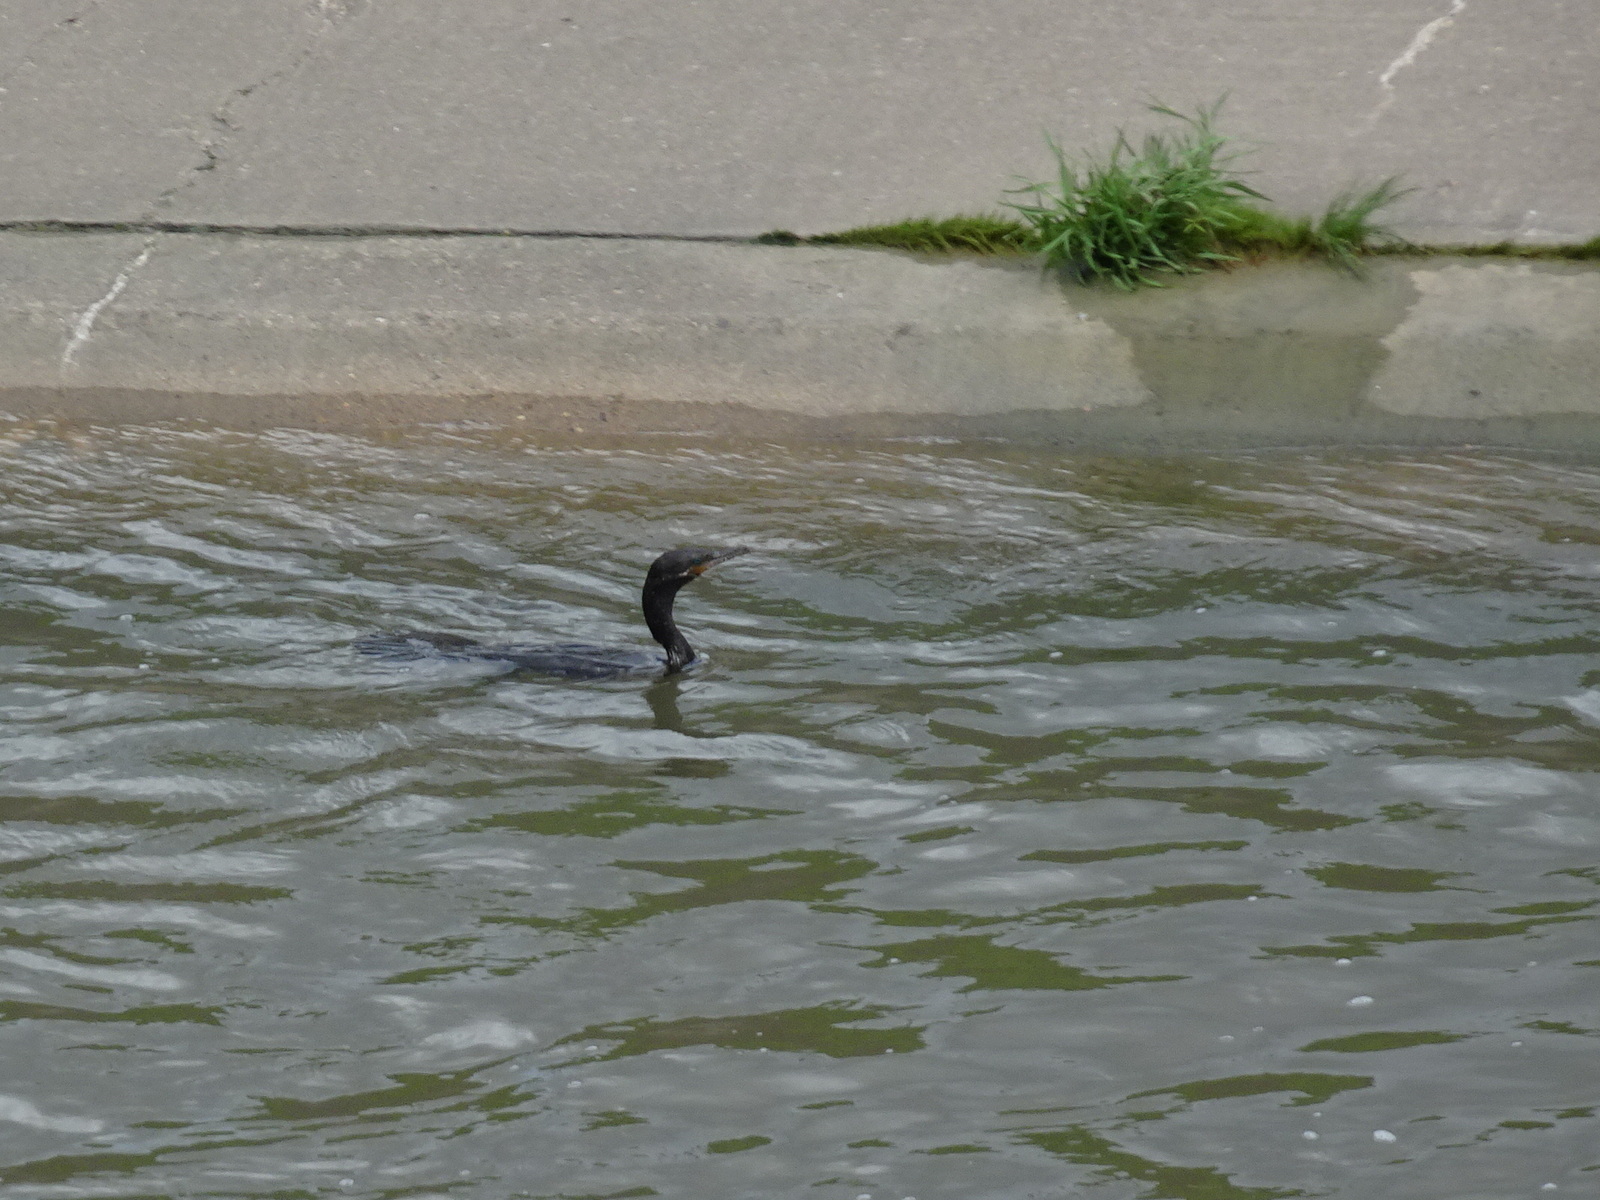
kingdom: Animalia
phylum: Chordata
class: Aves
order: Suliformes
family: Phalacrocoracidae
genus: Phalacrocorax
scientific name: Phalacrocorax brasilianus
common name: Neotropic cormorant
